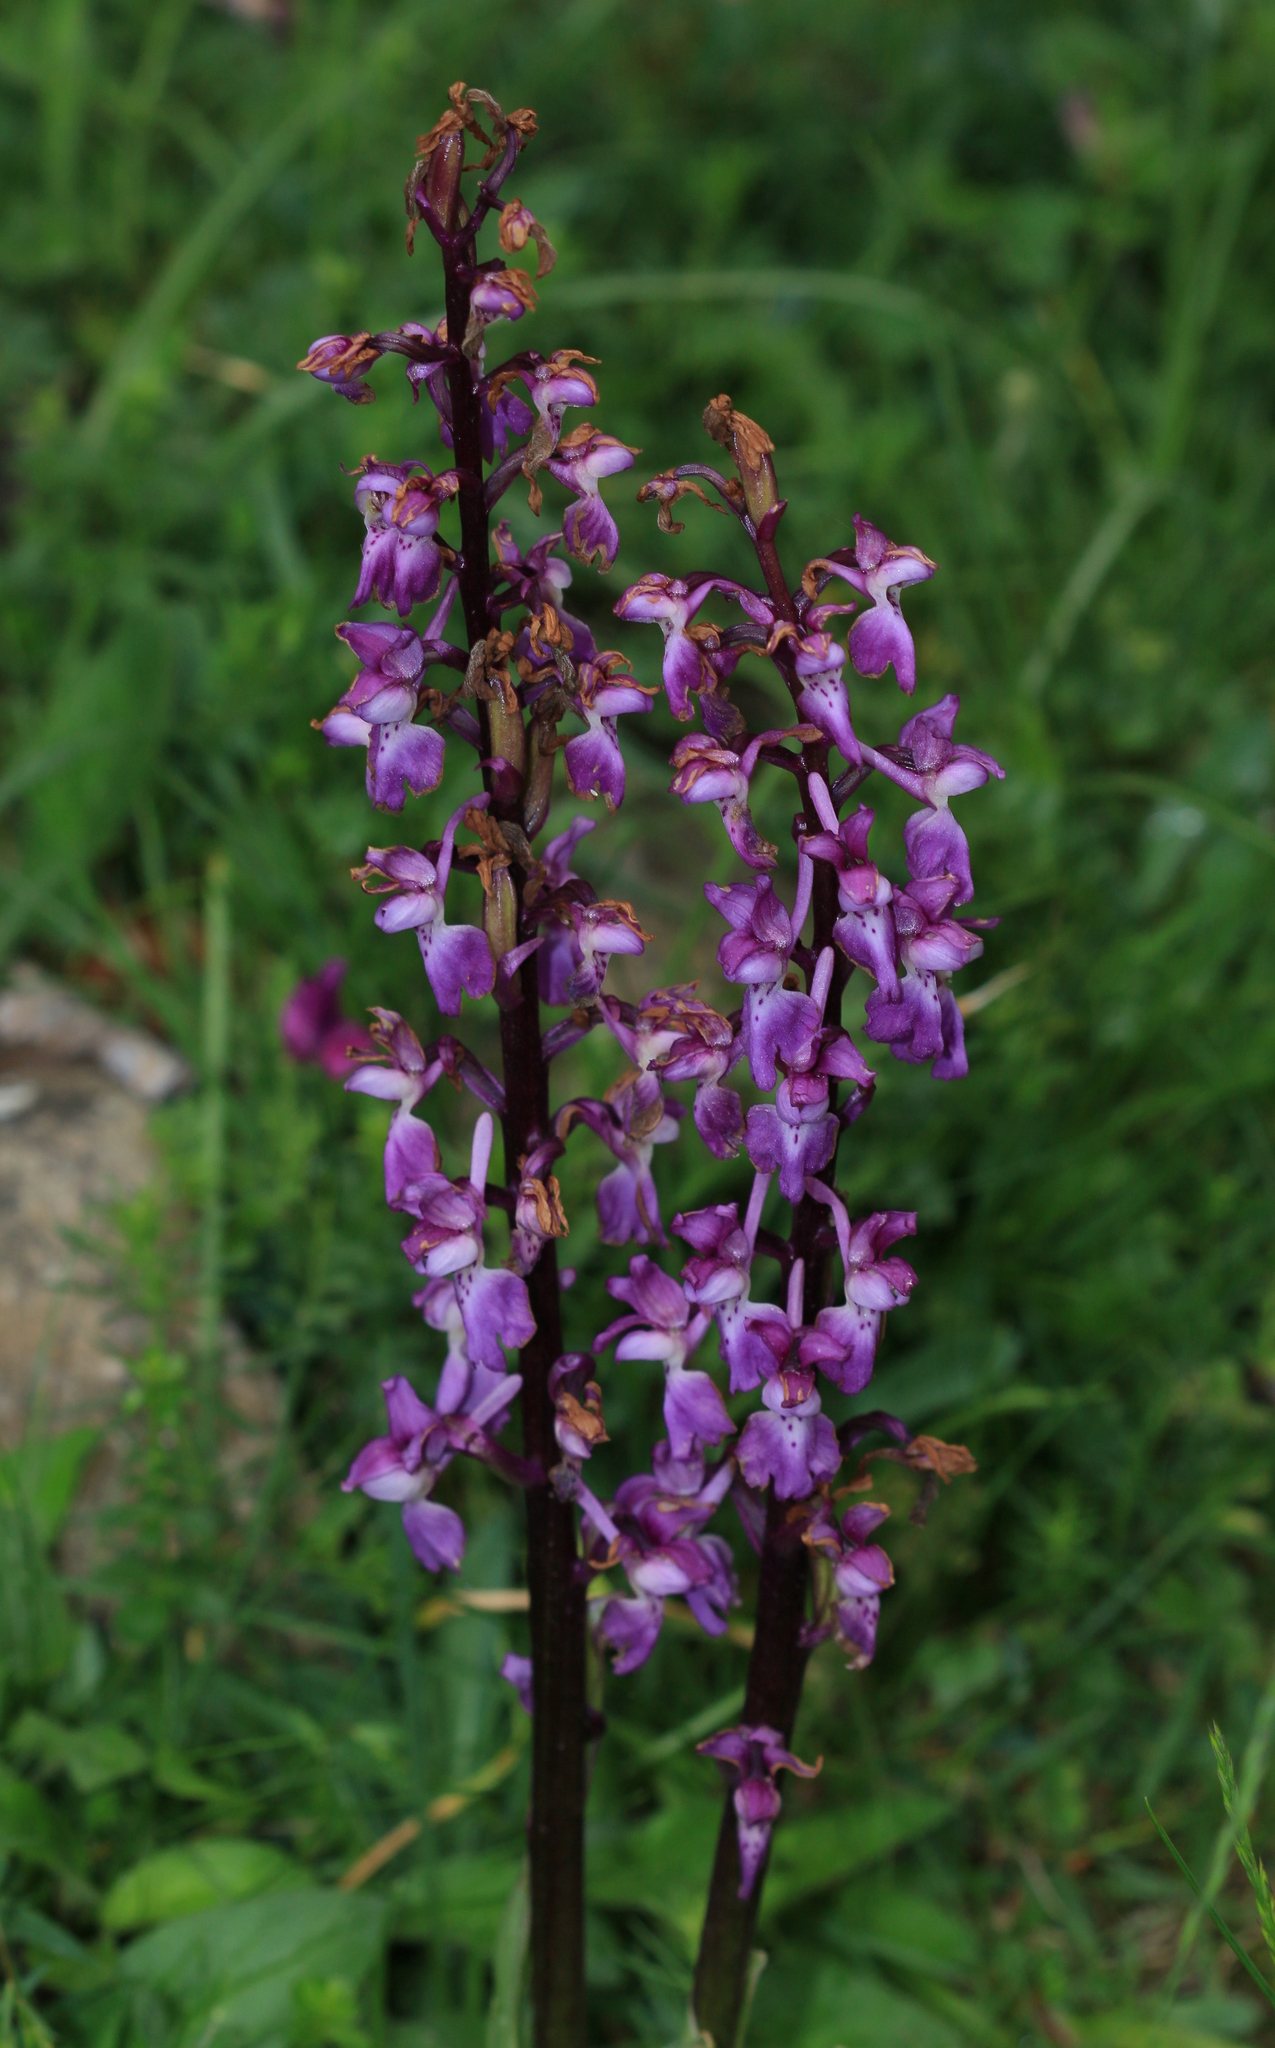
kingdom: Plantae
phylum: Tracheophyta
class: Liliopsida
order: Asparagales
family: Orchidaceae
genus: Orchis
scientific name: Orchis mascula
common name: Early-purple orchid
